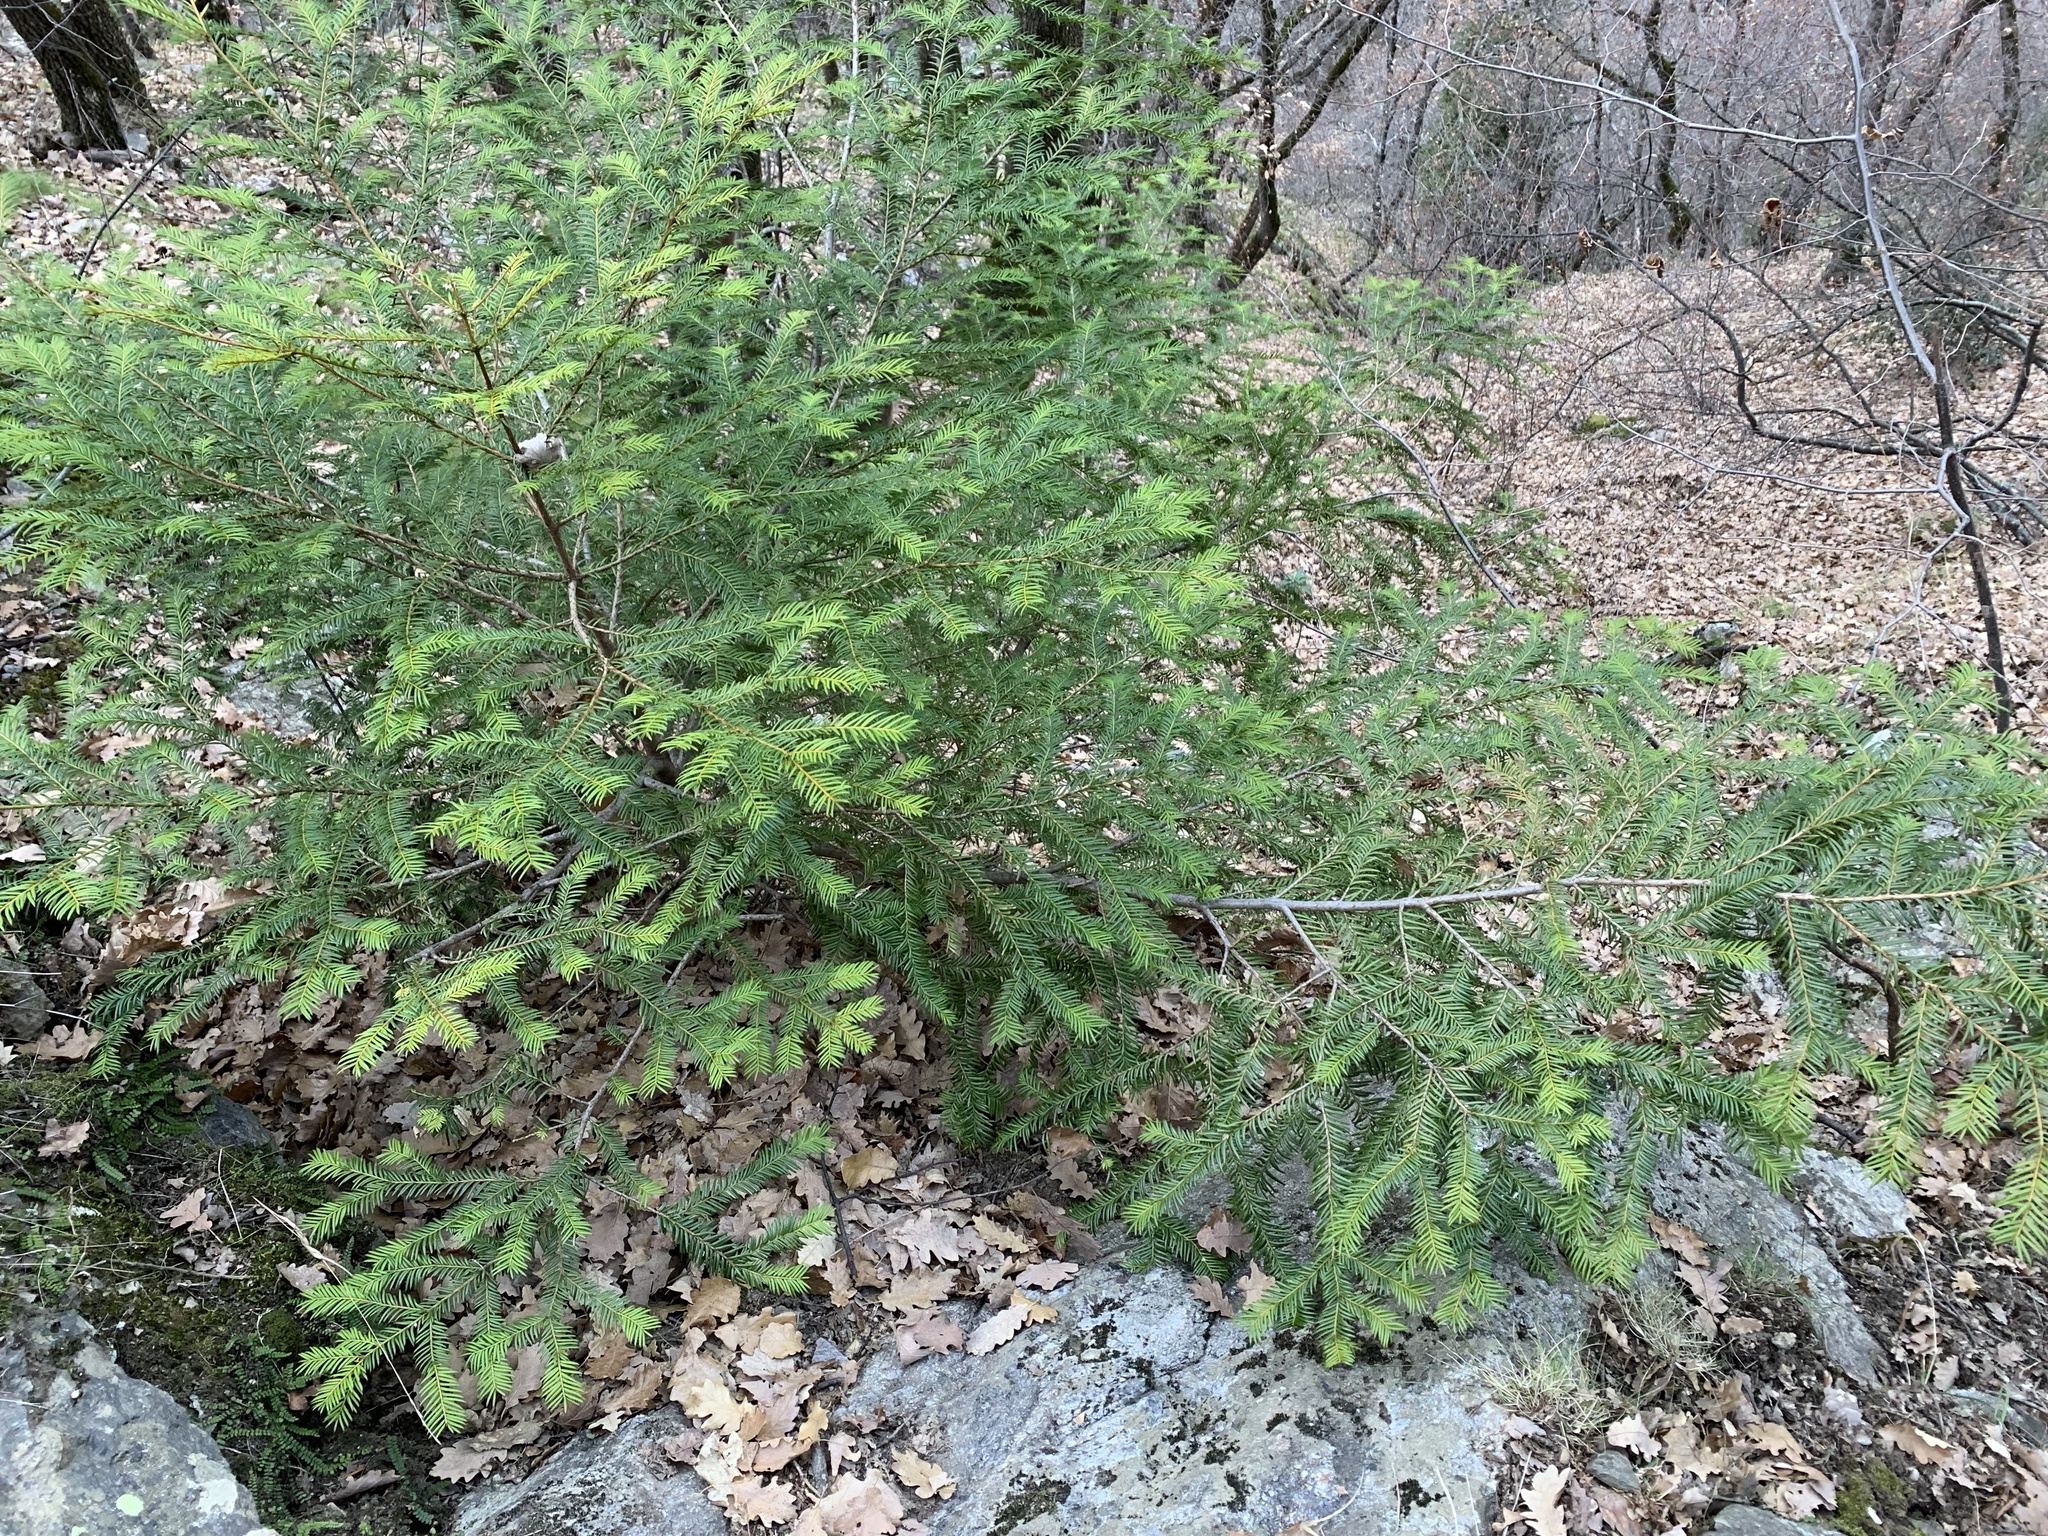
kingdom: Plantae
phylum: Tracheophyta
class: Pinopsida
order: Pinales
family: Taxaceae
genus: Taxus
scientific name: Taxus baccata
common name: Yew
